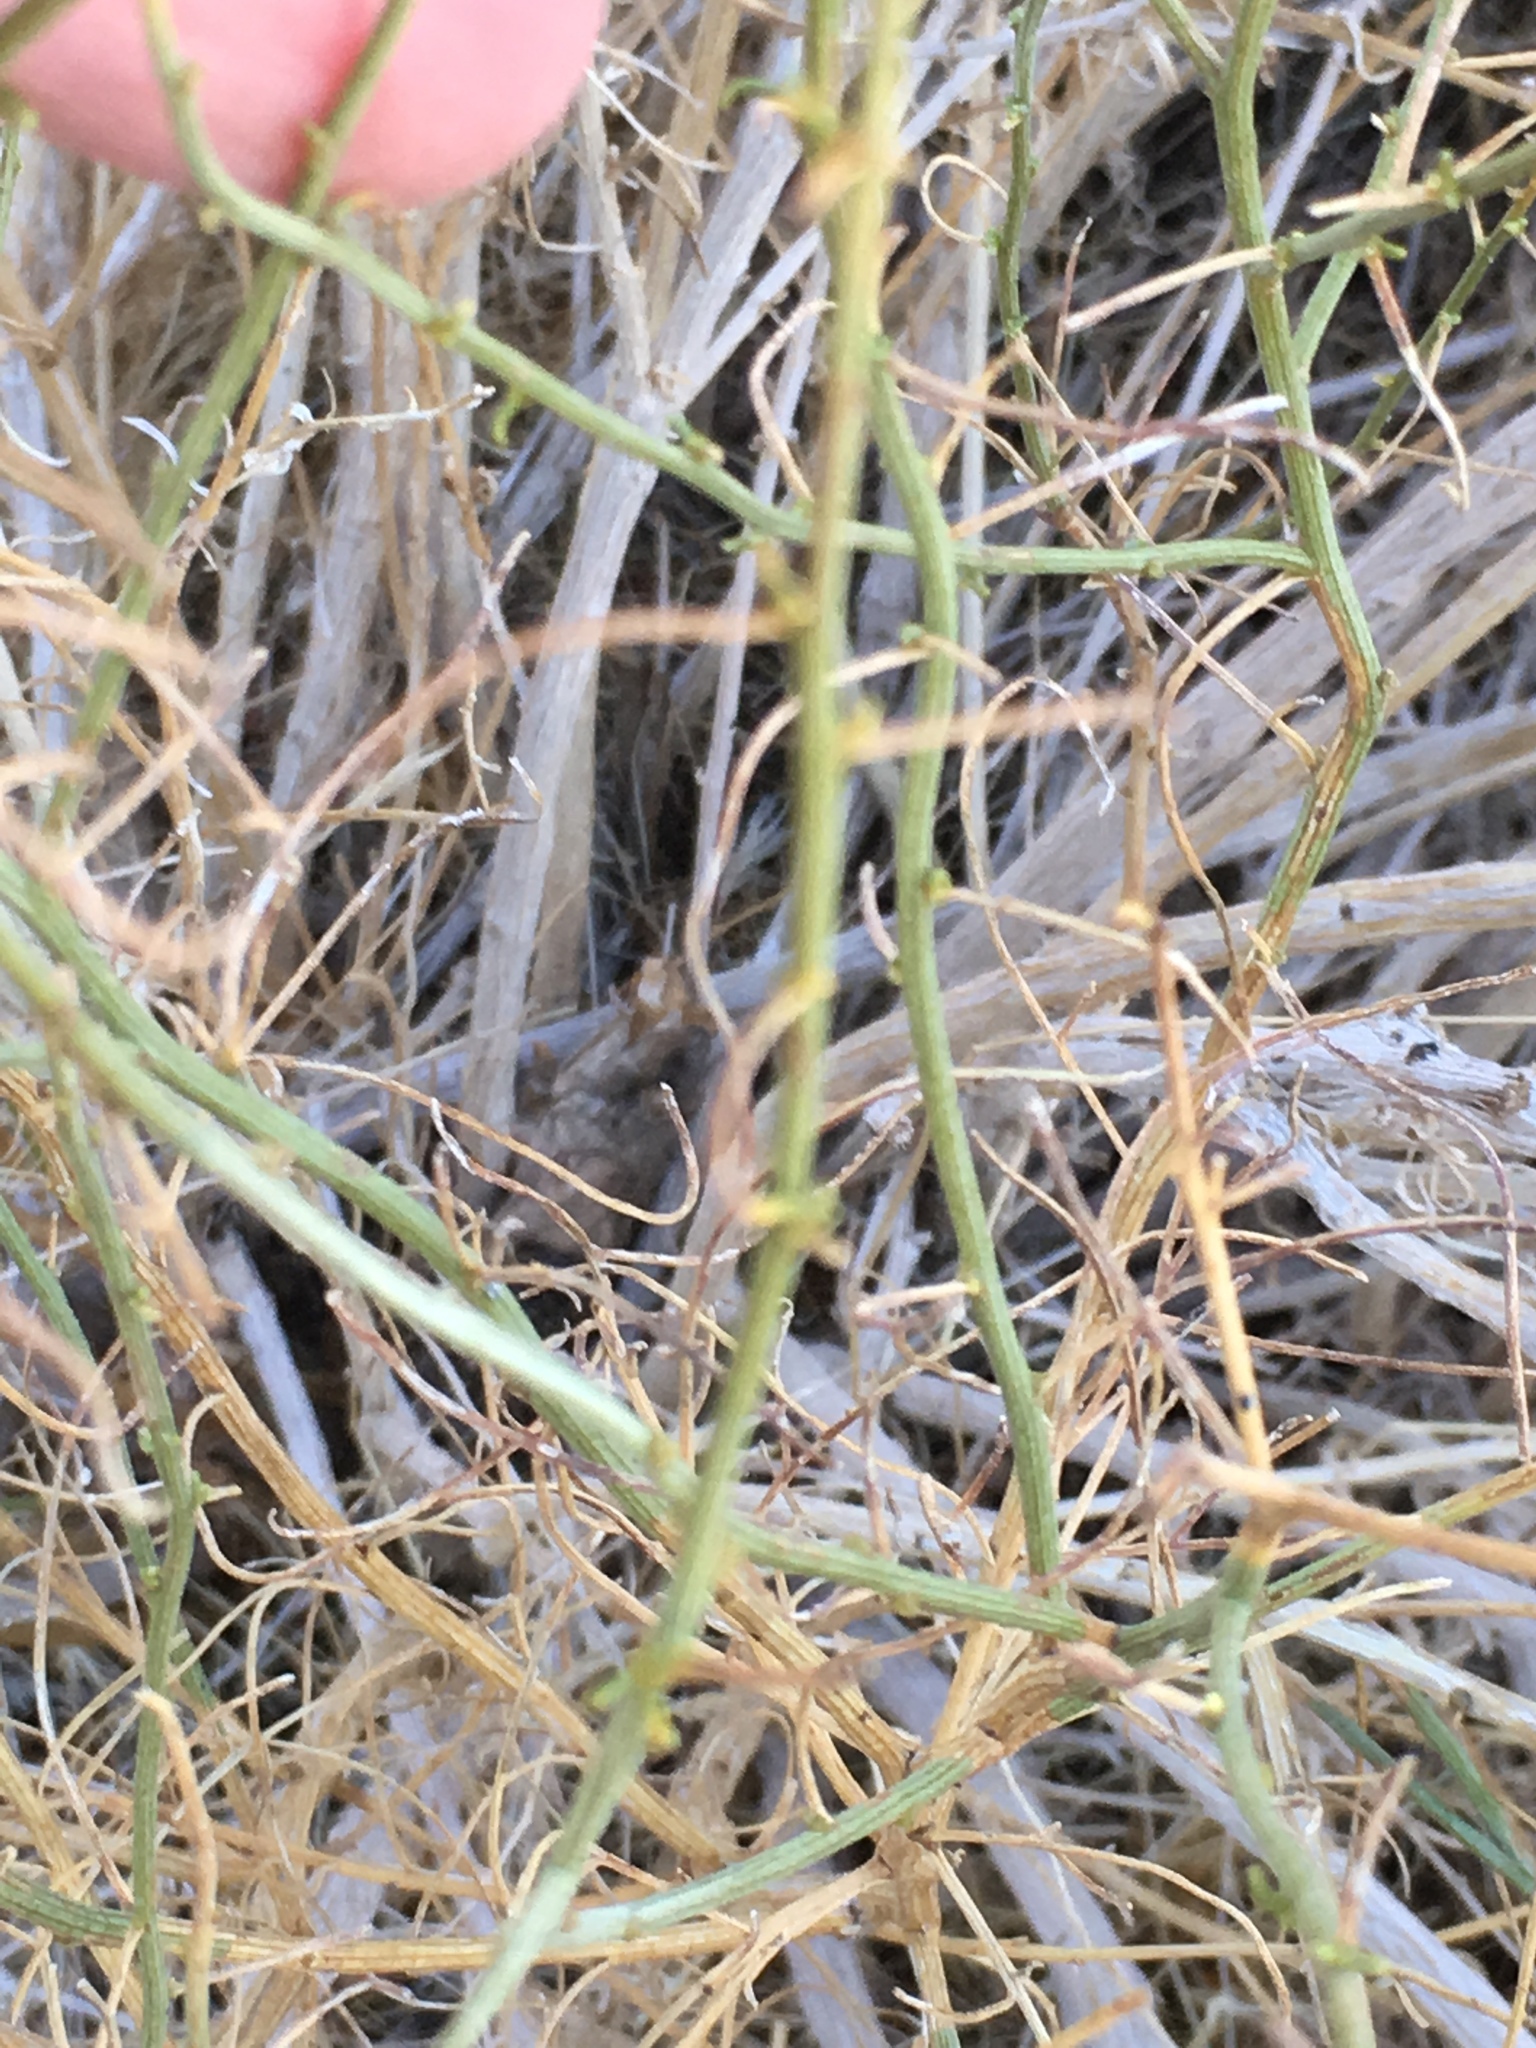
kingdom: Plantae
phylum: Tracheophyta
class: Magnoliopsida
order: Asterales
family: Asteraceae
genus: Ambrosia
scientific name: Ambrosia salsola
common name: Burrobrush
